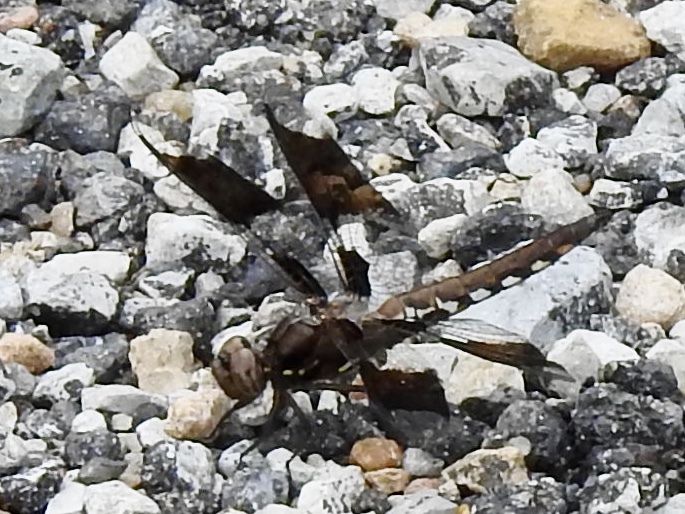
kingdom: Animalia
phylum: Arthropoda
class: Insecta
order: Odonata
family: Libellulidae
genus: Plathemis
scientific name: Plathemis lydia
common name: Common whitetail
